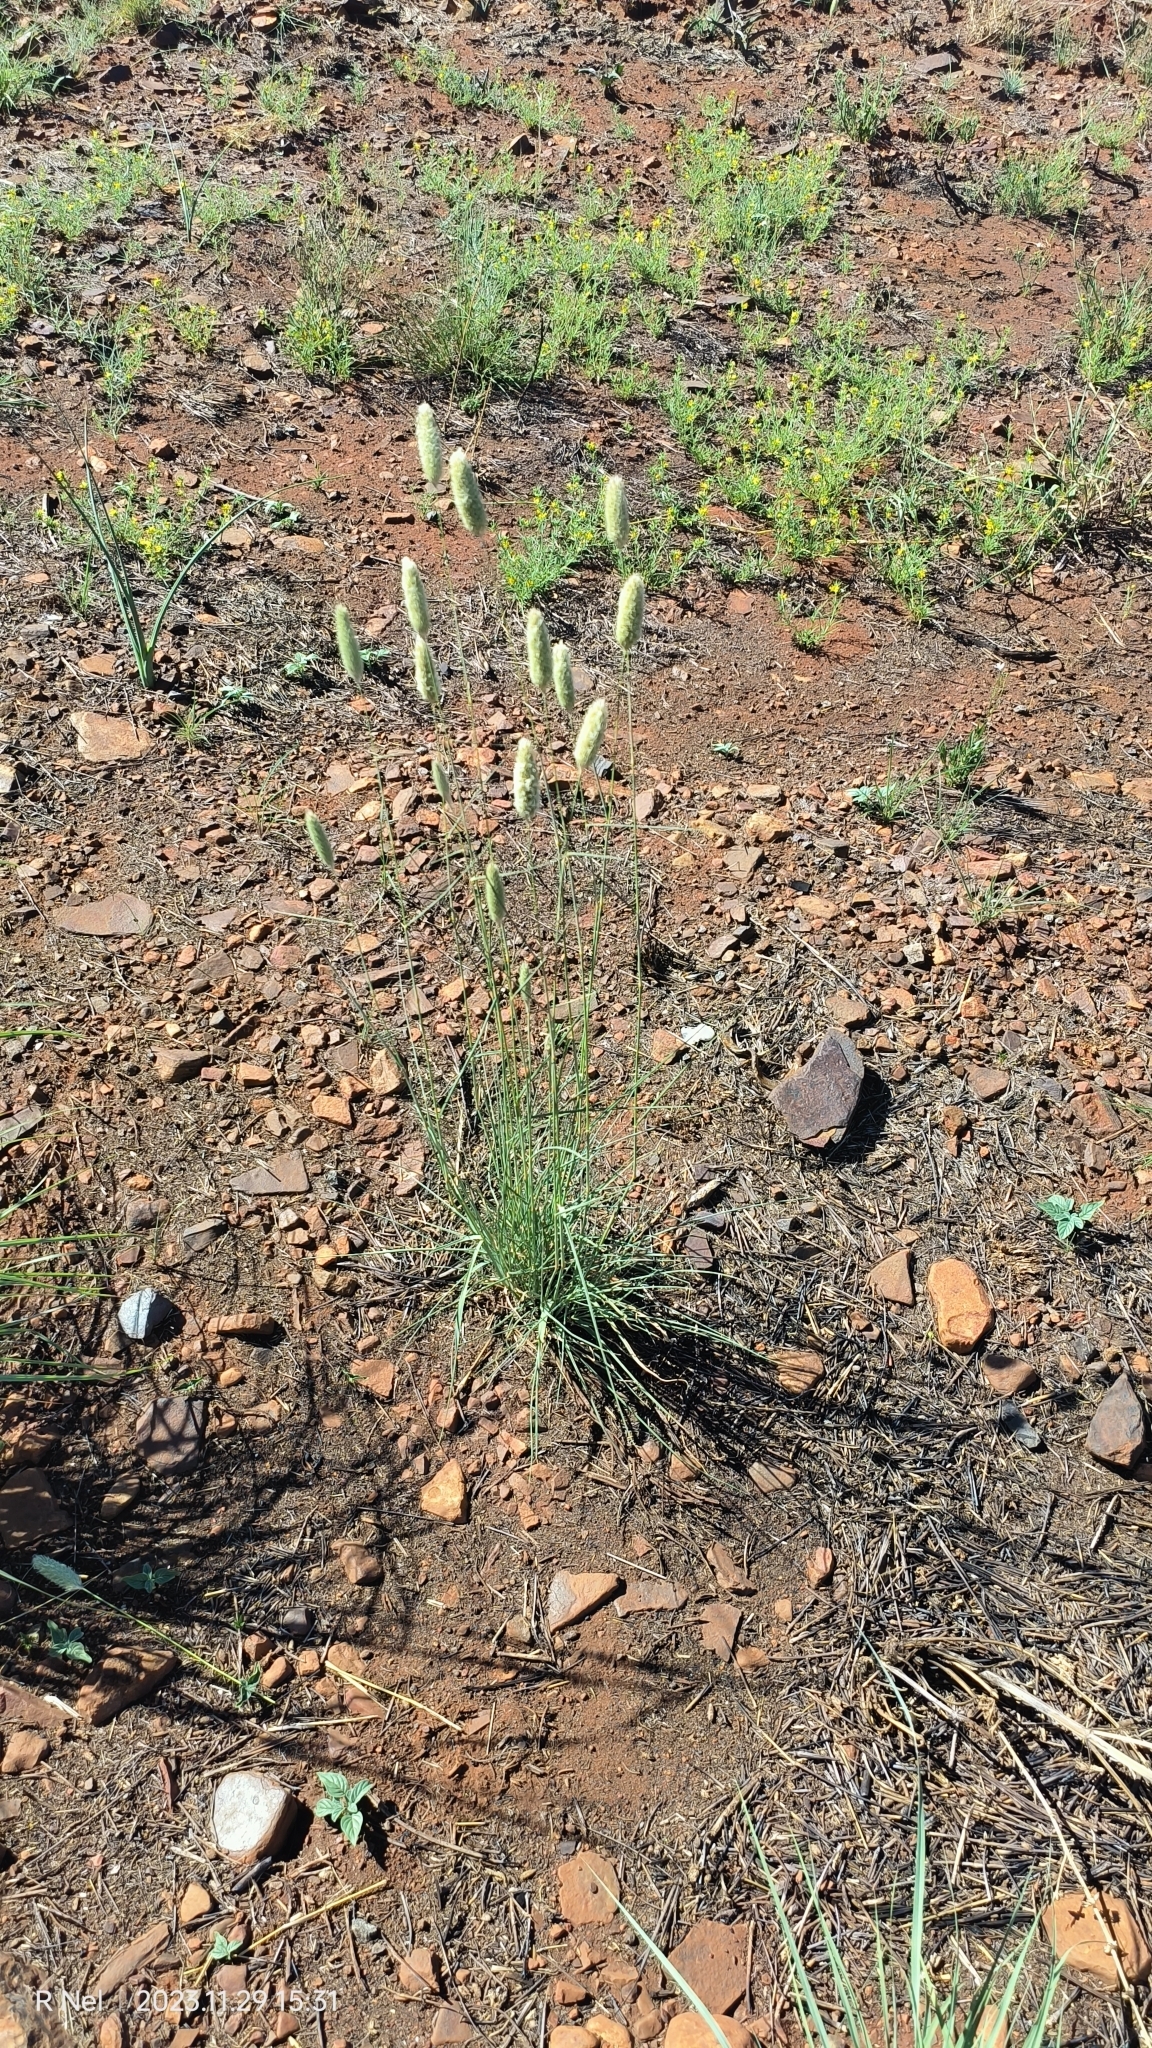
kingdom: Plantae
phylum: Tracheophyta
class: Liliopsida
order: Poales
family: Poaceae
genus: Fingerhuthia
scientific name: Fingerhuthia africana
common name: Zulu fescue
